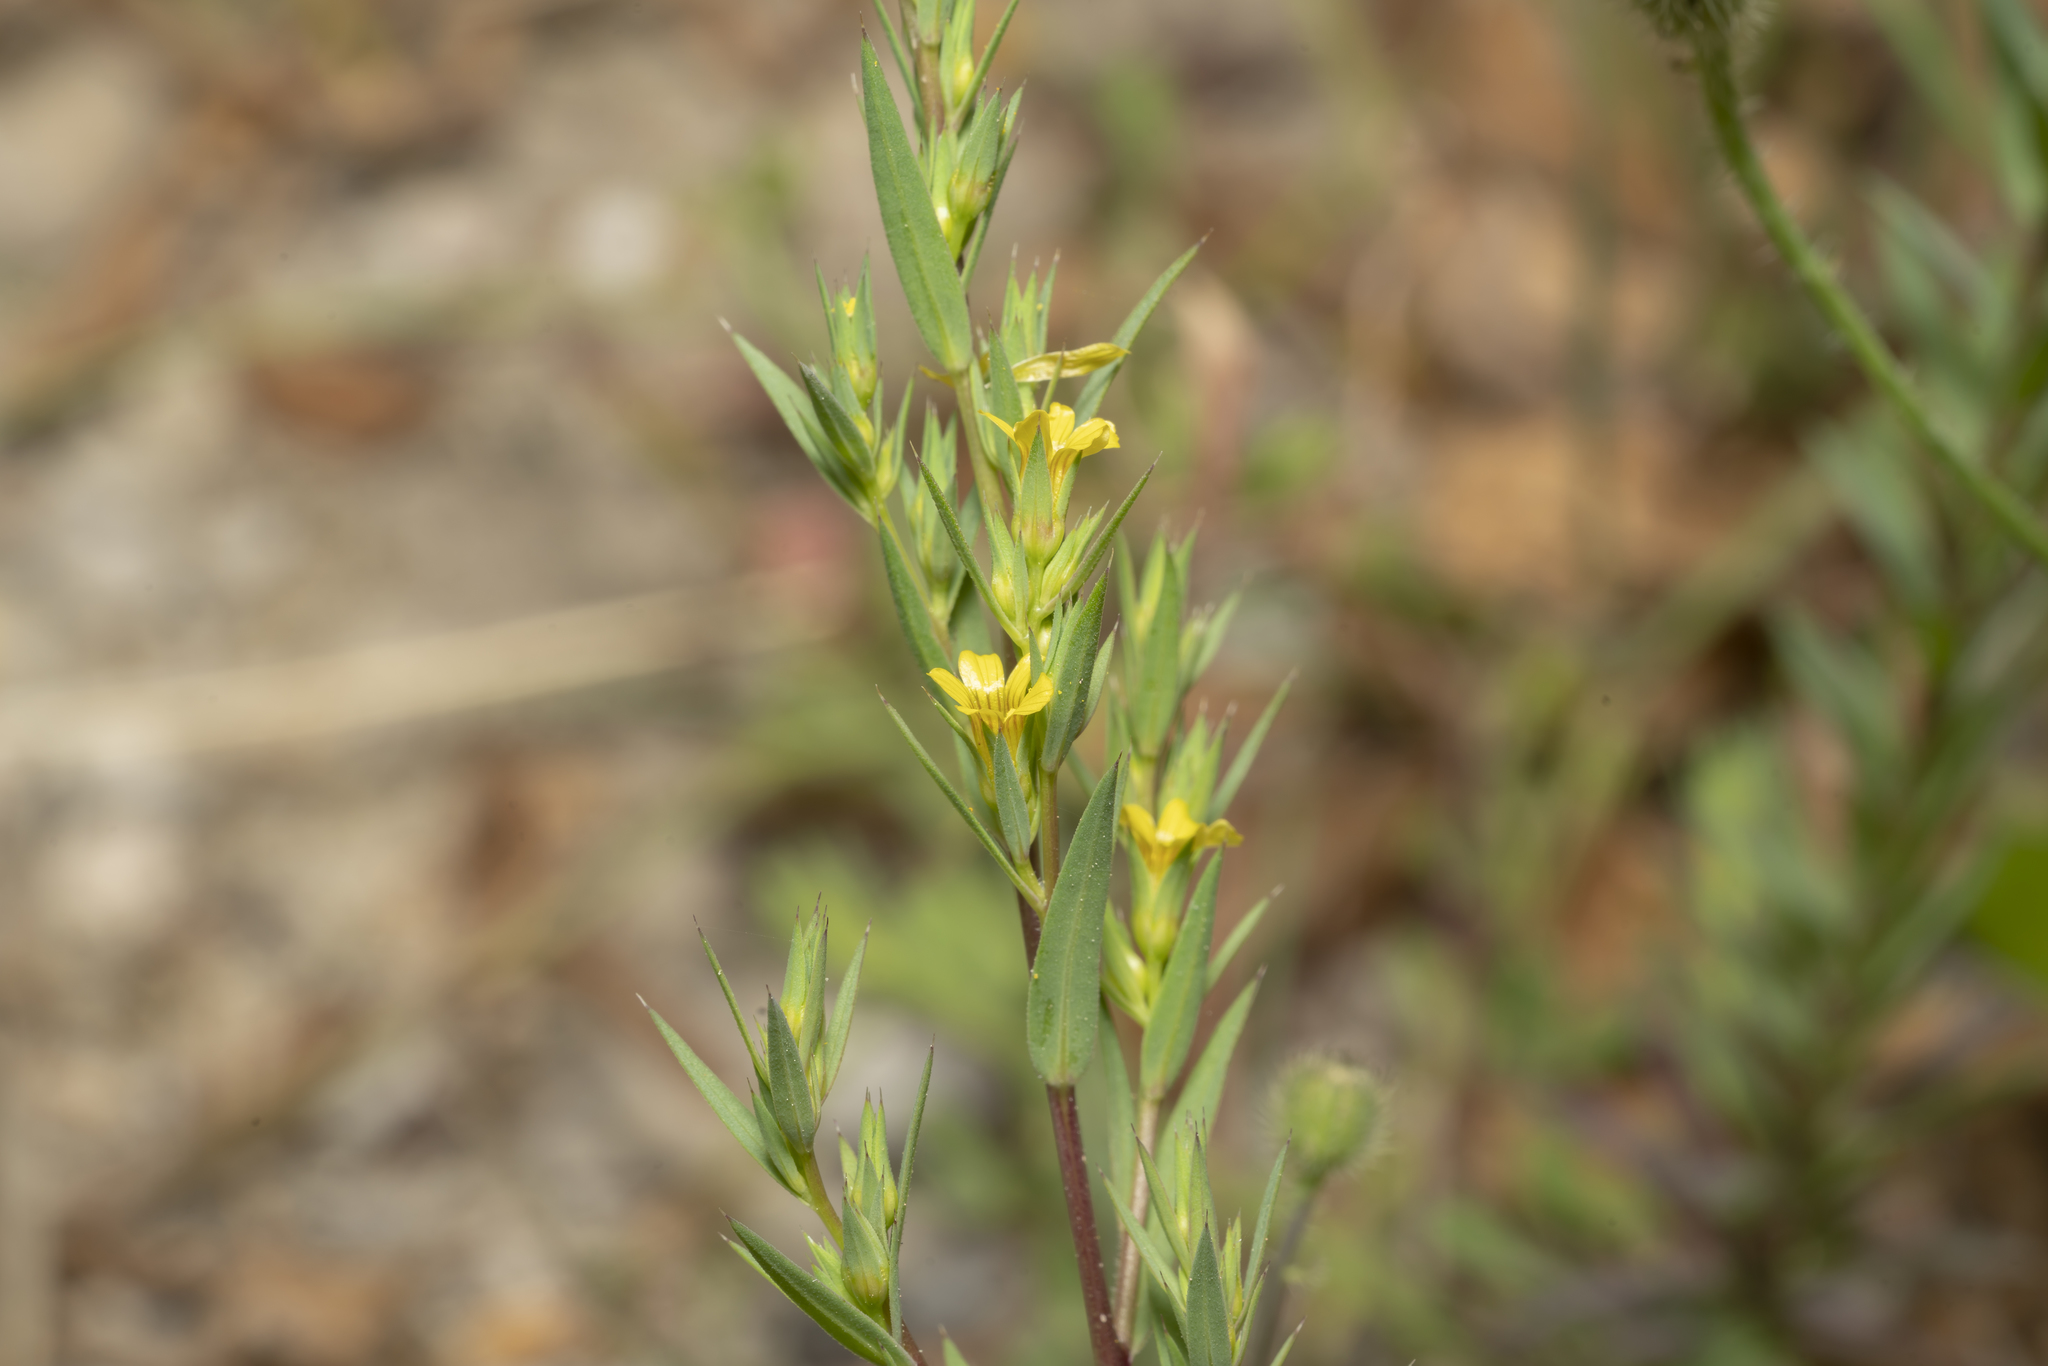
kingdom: Plantae
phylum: Tracheophyta
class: Magnoliopsida
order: Malpighiales
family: Linaceae
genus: Linum
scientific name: Linum strictum
